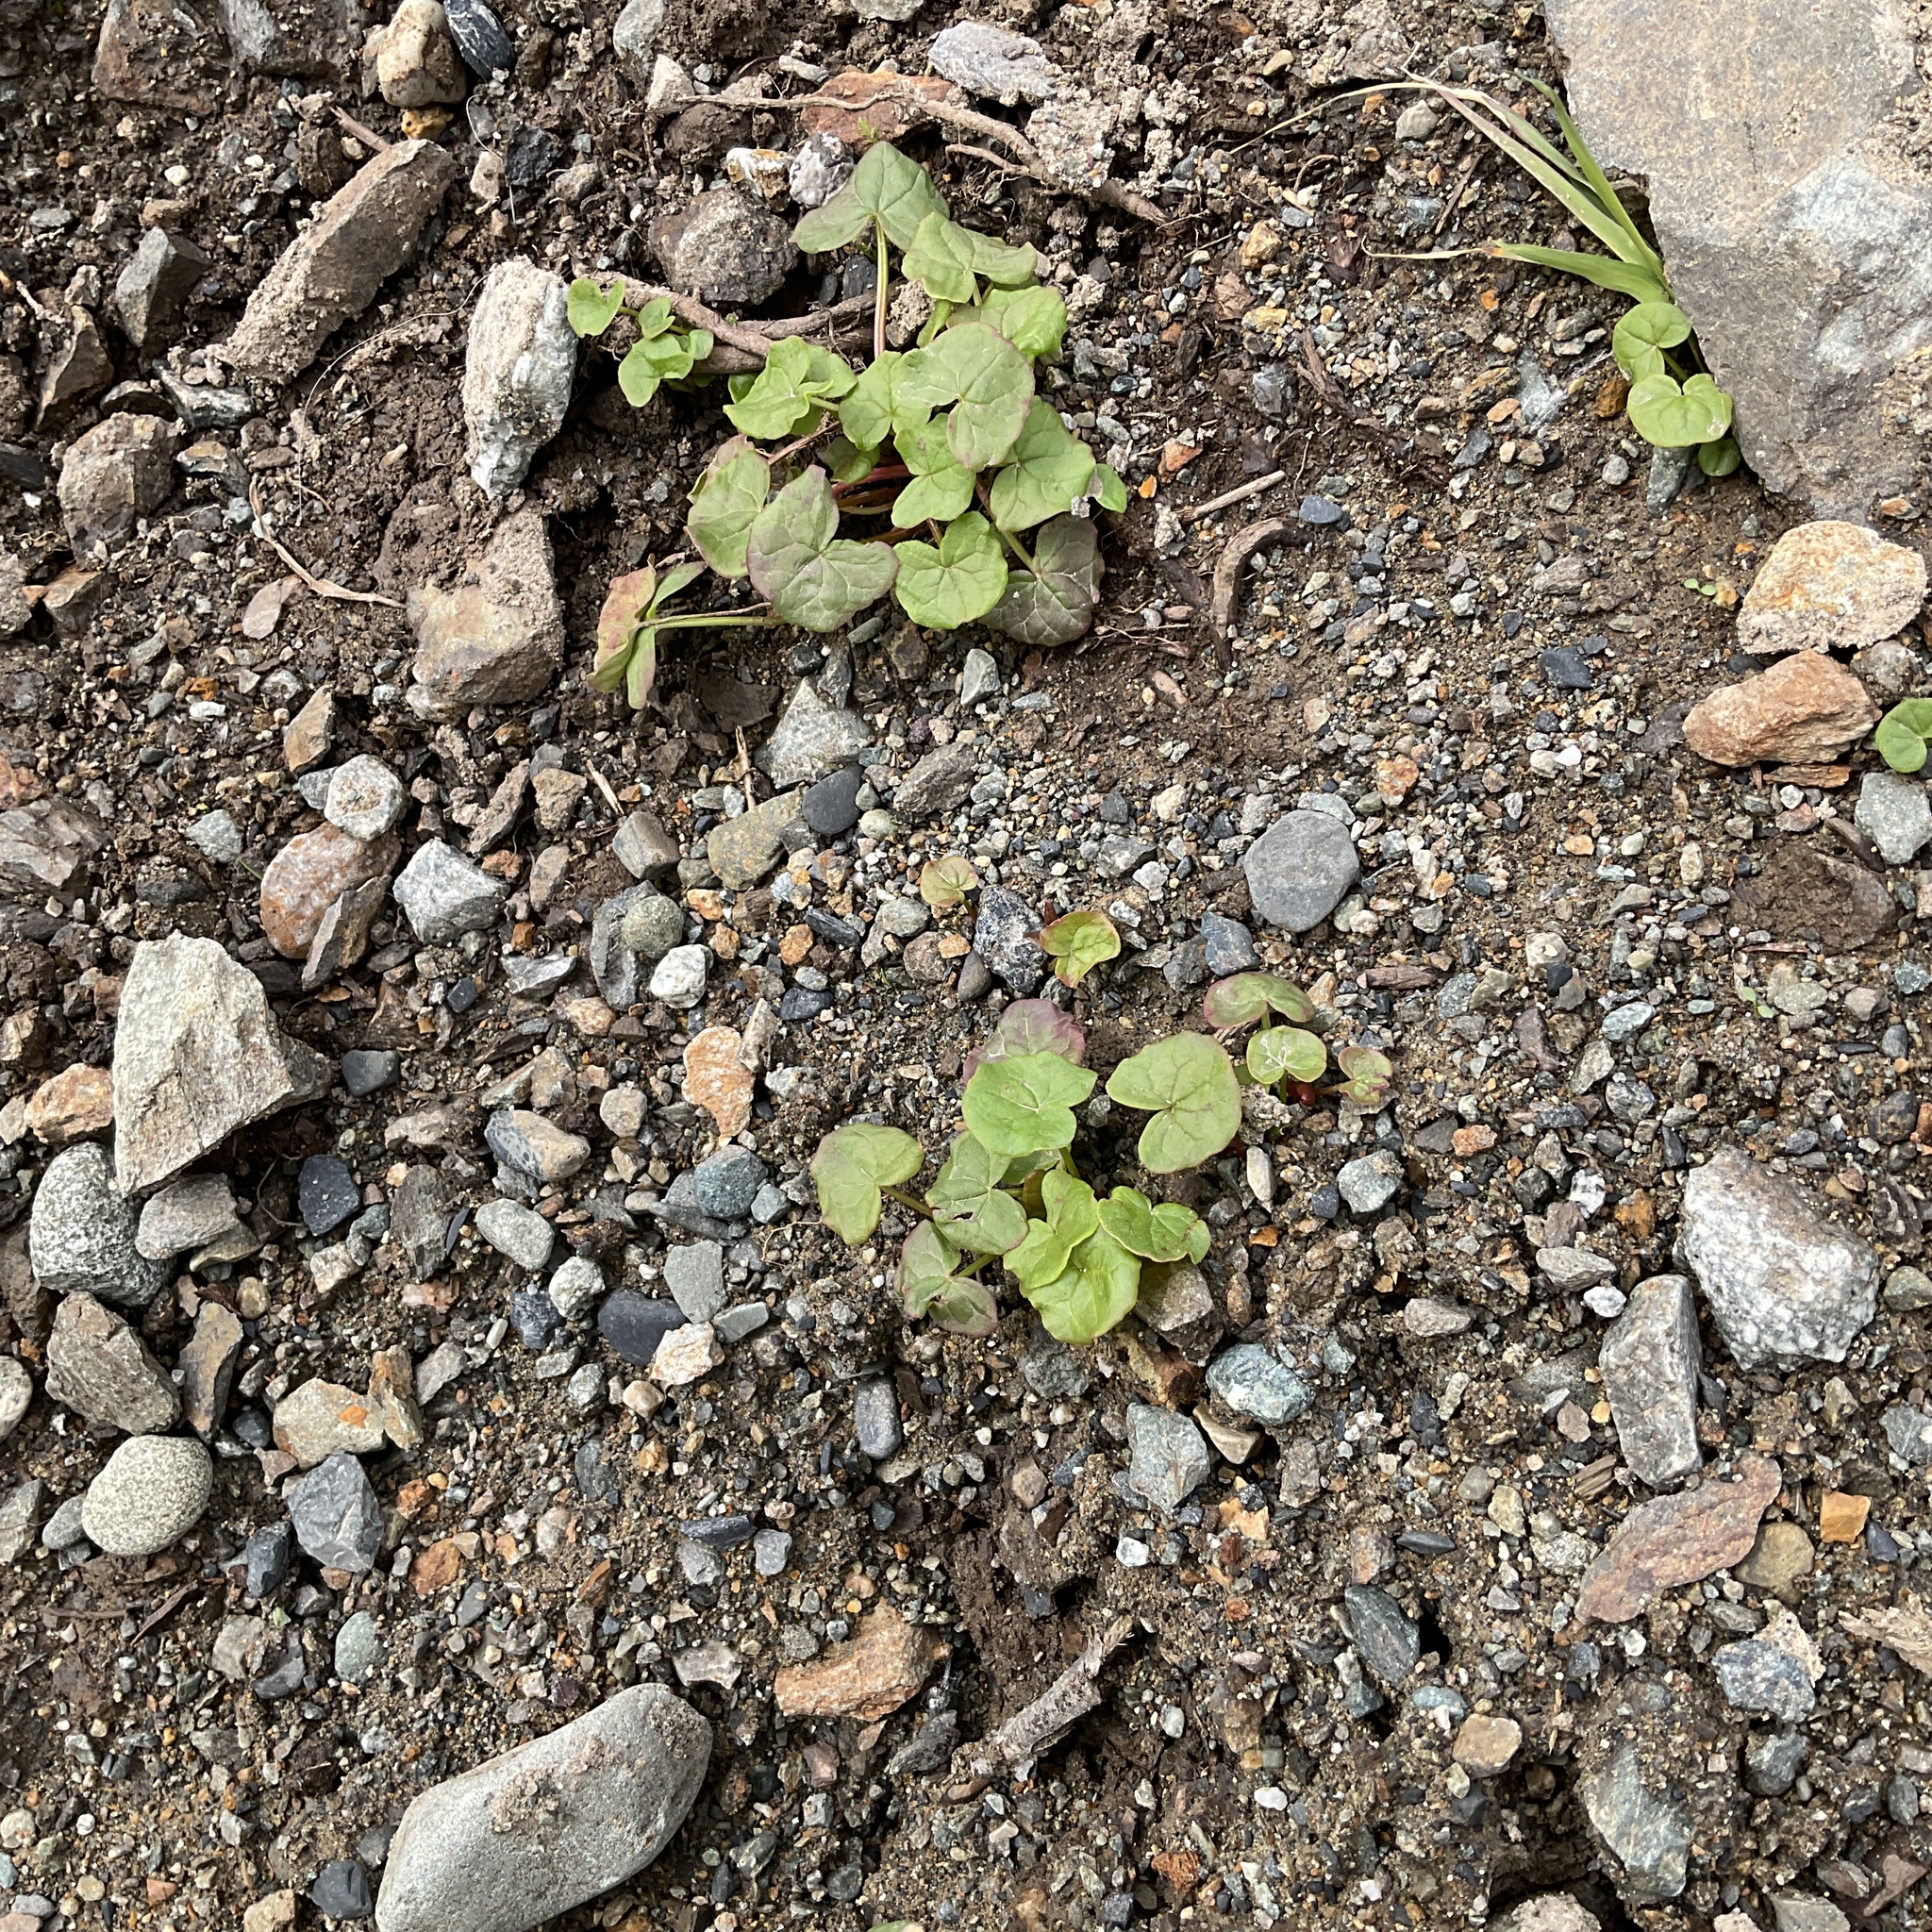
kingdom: Plantae
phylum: Tracheophyta
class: Magnoliopsida
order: Caryophyllales
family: Polygonaceae
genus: Oxyria
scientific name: Oxyria digyna
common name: Alpine mountain-sorrel
